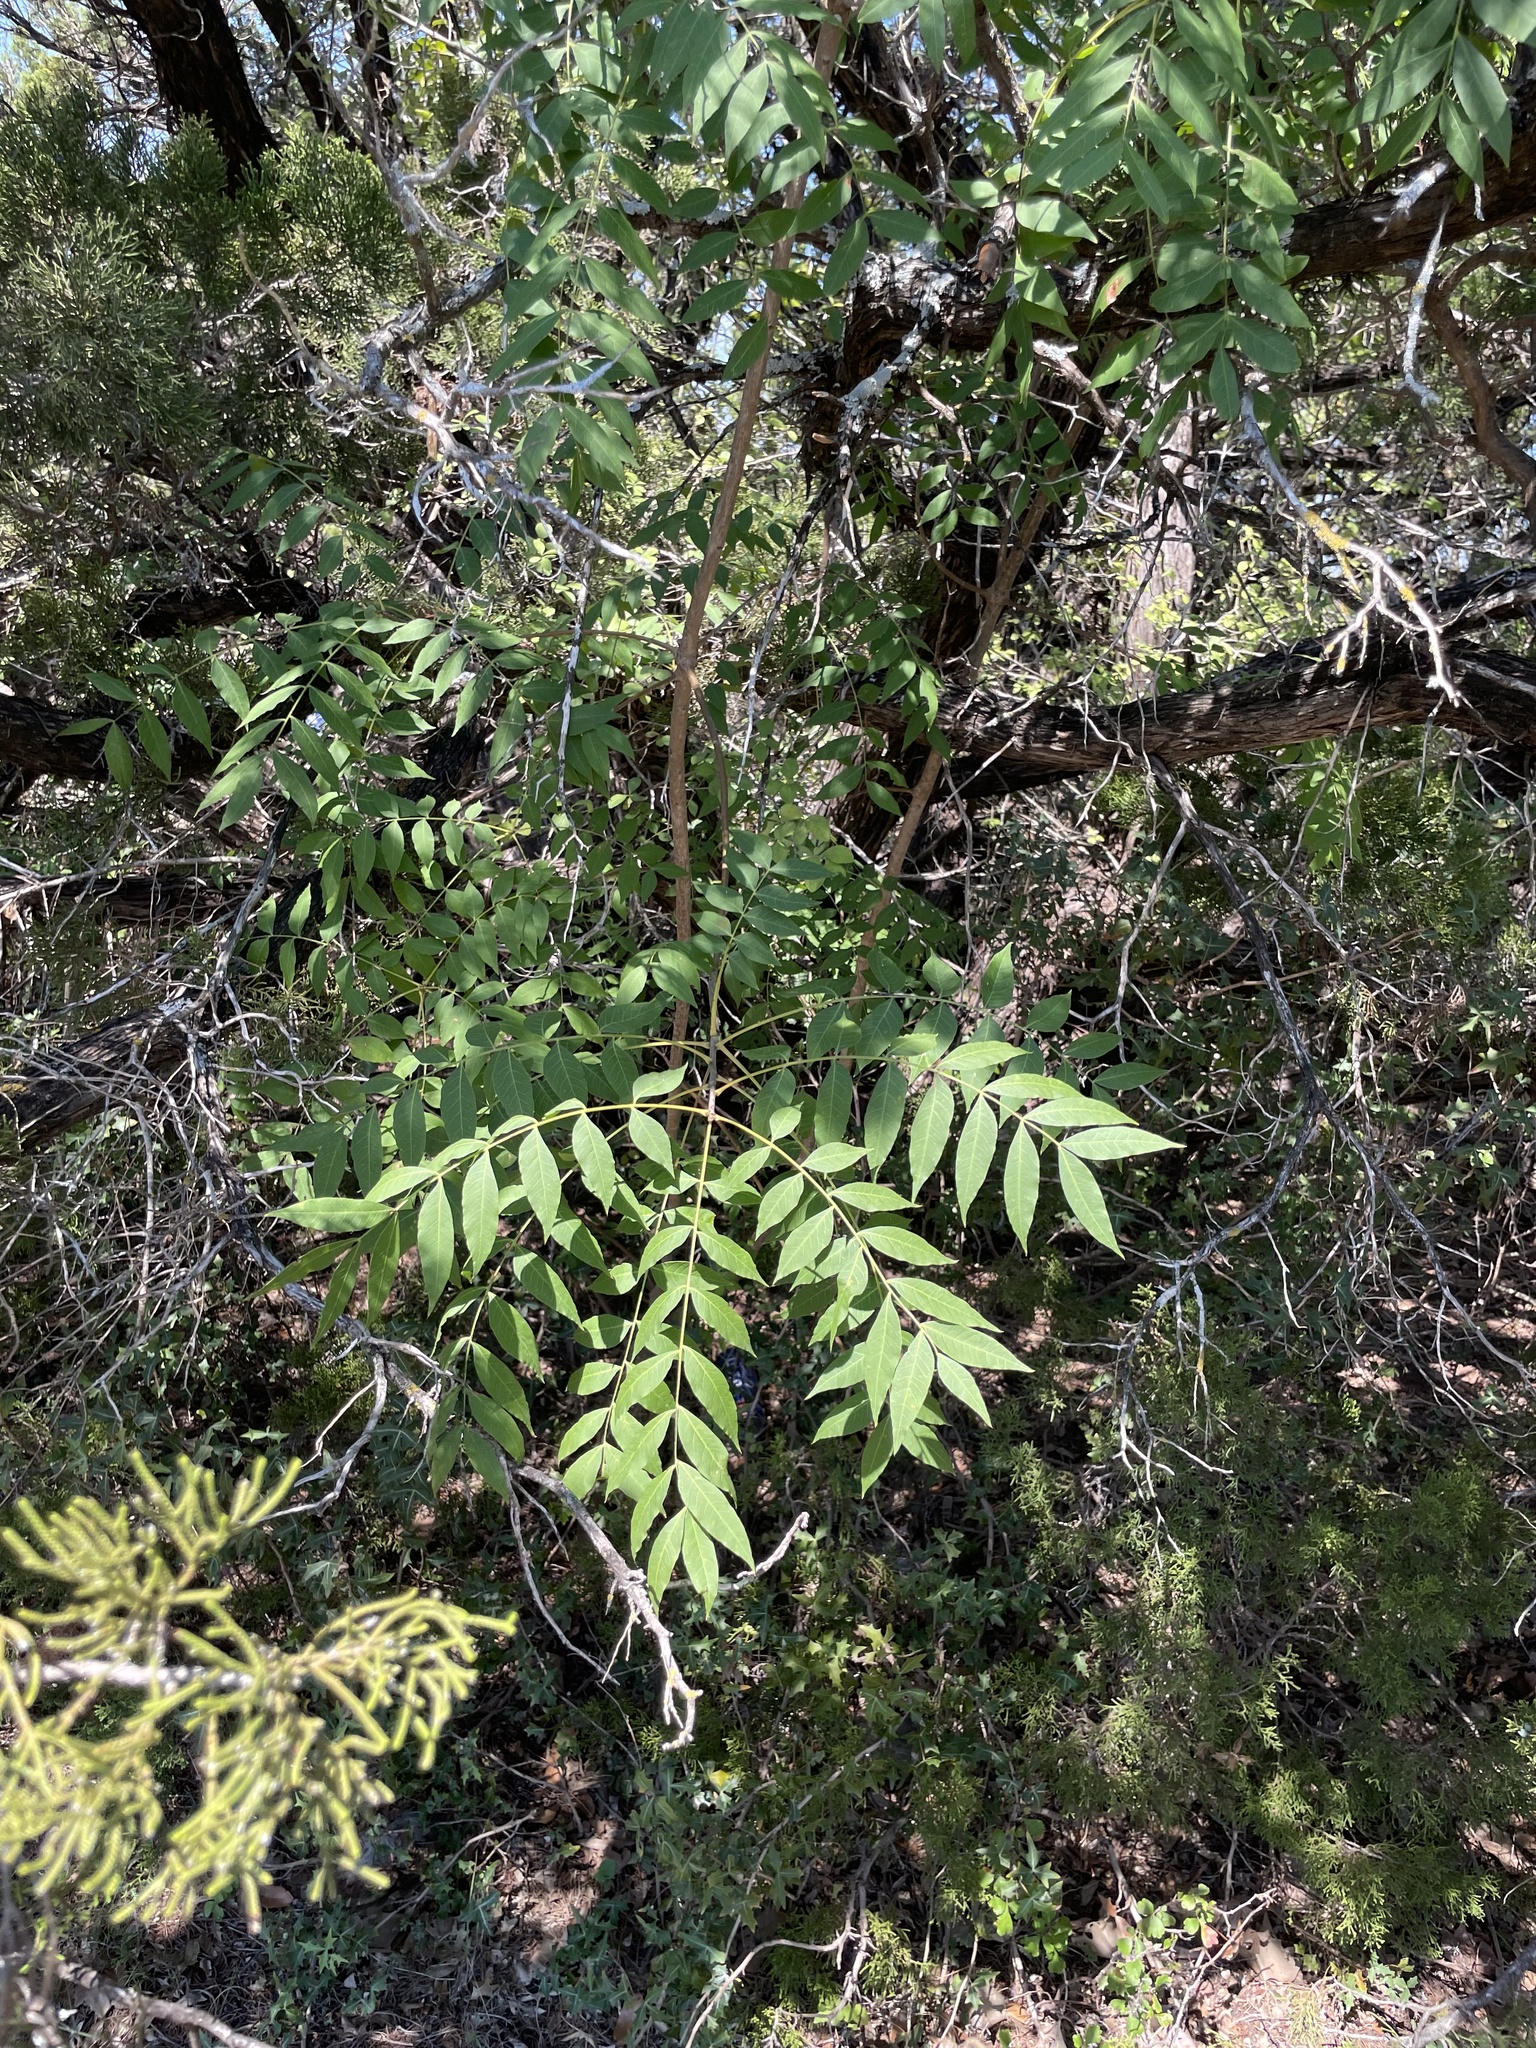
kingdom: Plantae
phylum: Tracheophyta
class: Magnoliopsida
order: Sapindales
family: Anacardiaceae
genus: Pistacia
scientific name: Pistacia chinensis
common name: Chinese pistache
